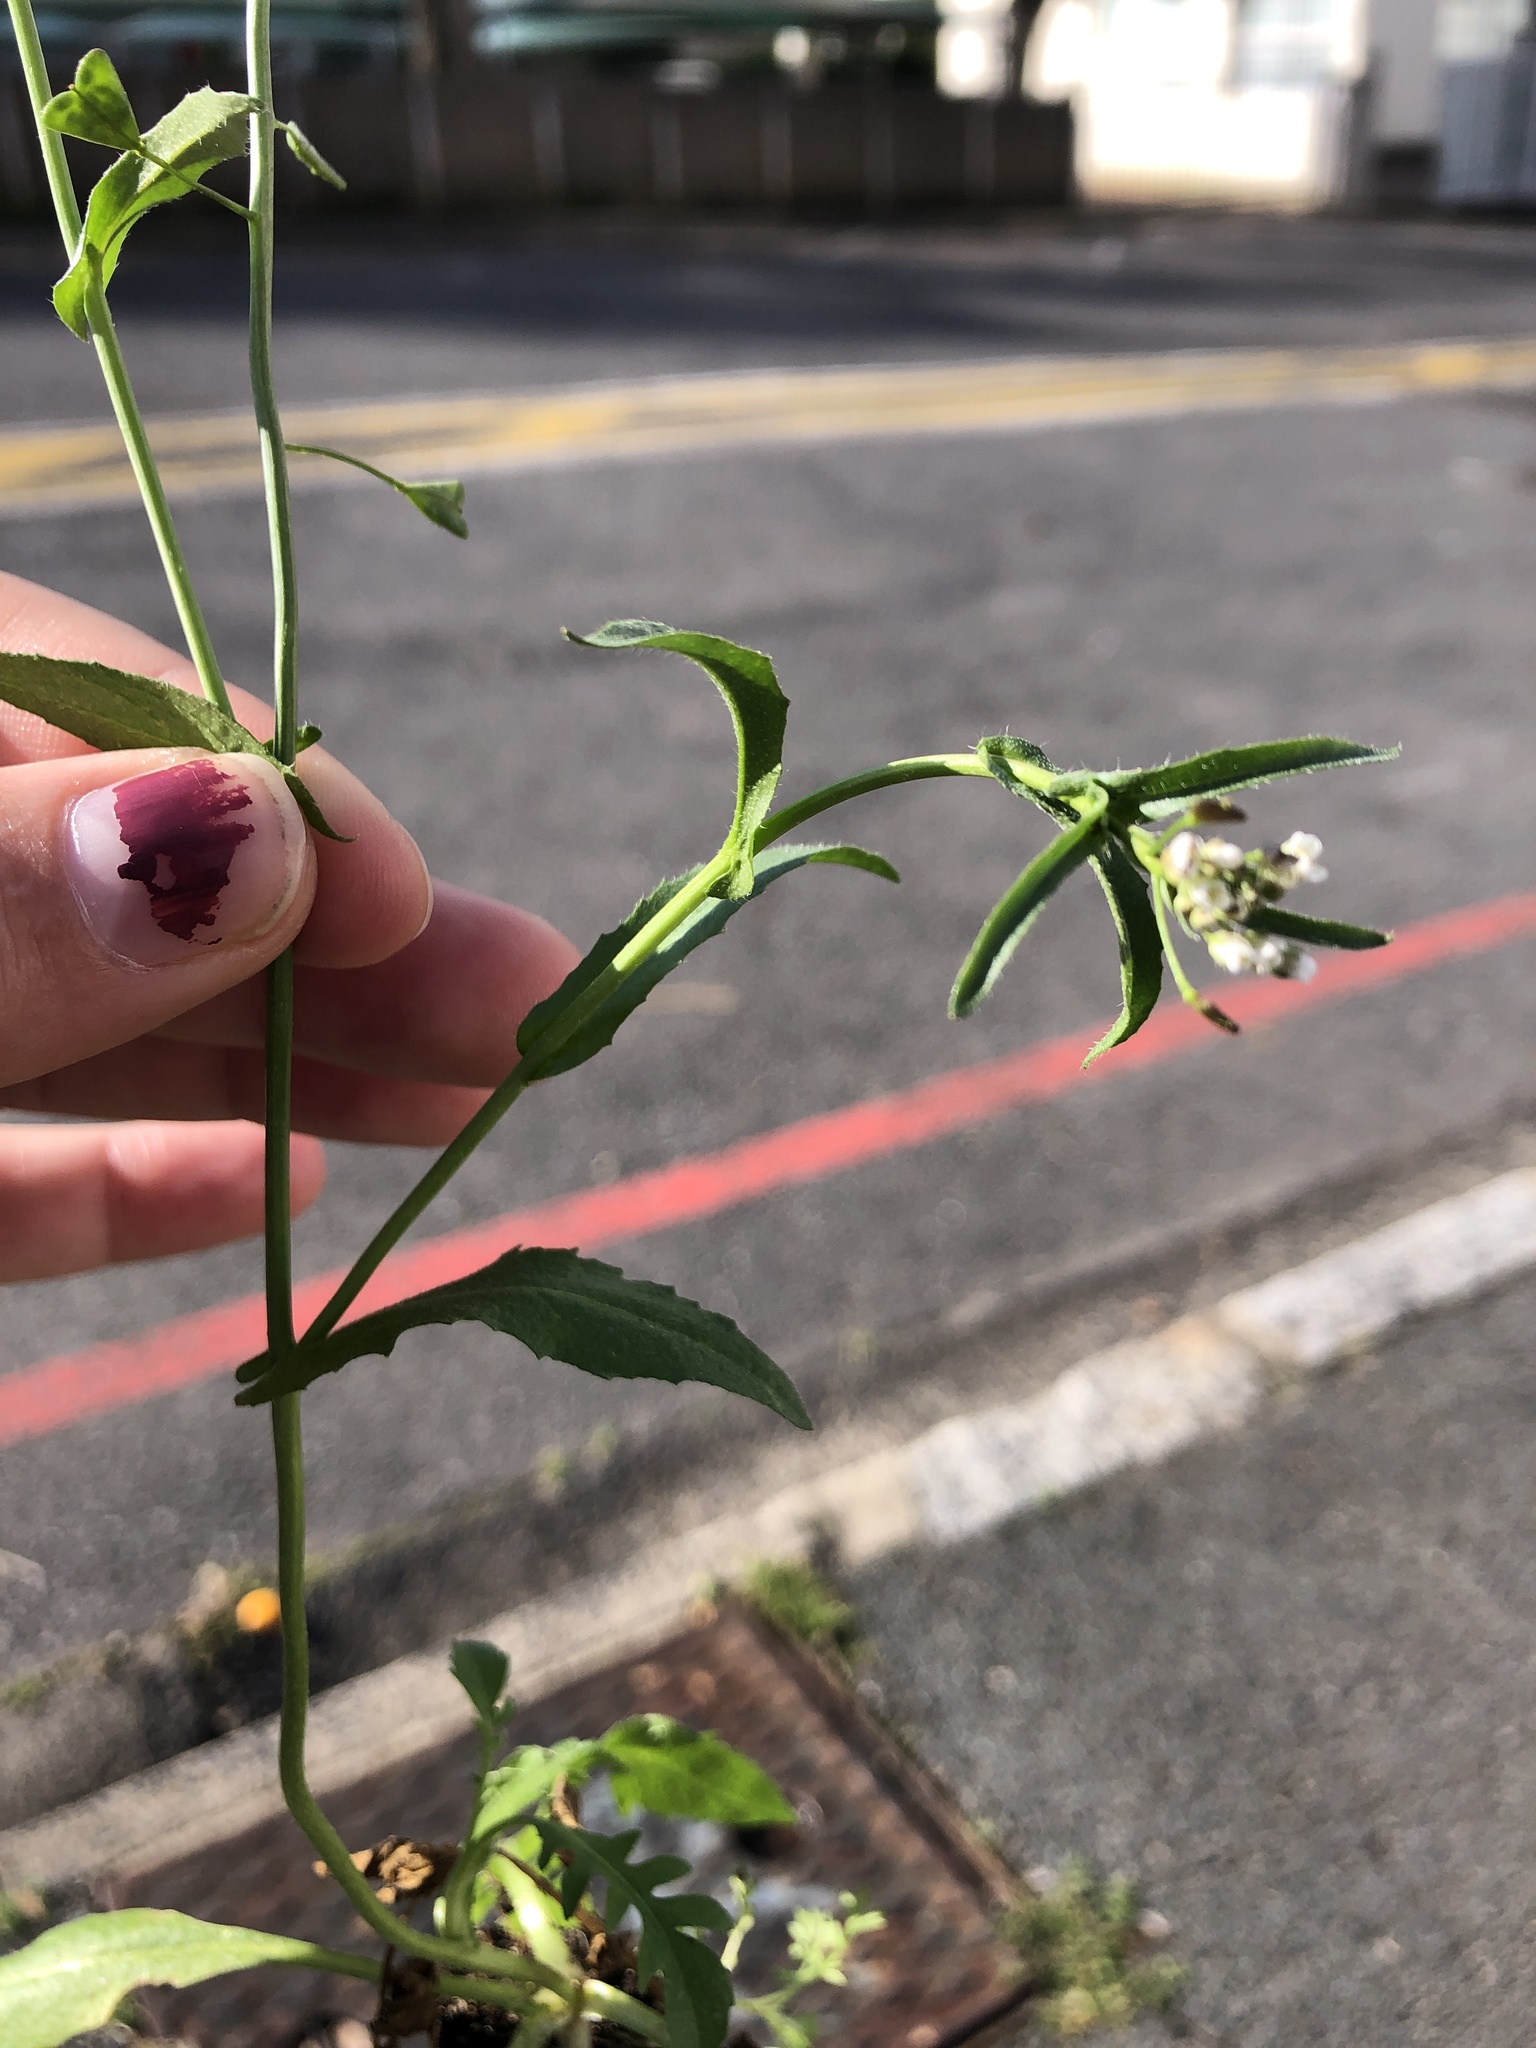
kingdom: Plantae
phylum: Tracheophyta
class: Magnoliopsida
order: Brassicales
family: Brassicaceae
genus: Capsella
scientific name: Capsella bursa-pastoris
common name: Shepherd's purse
